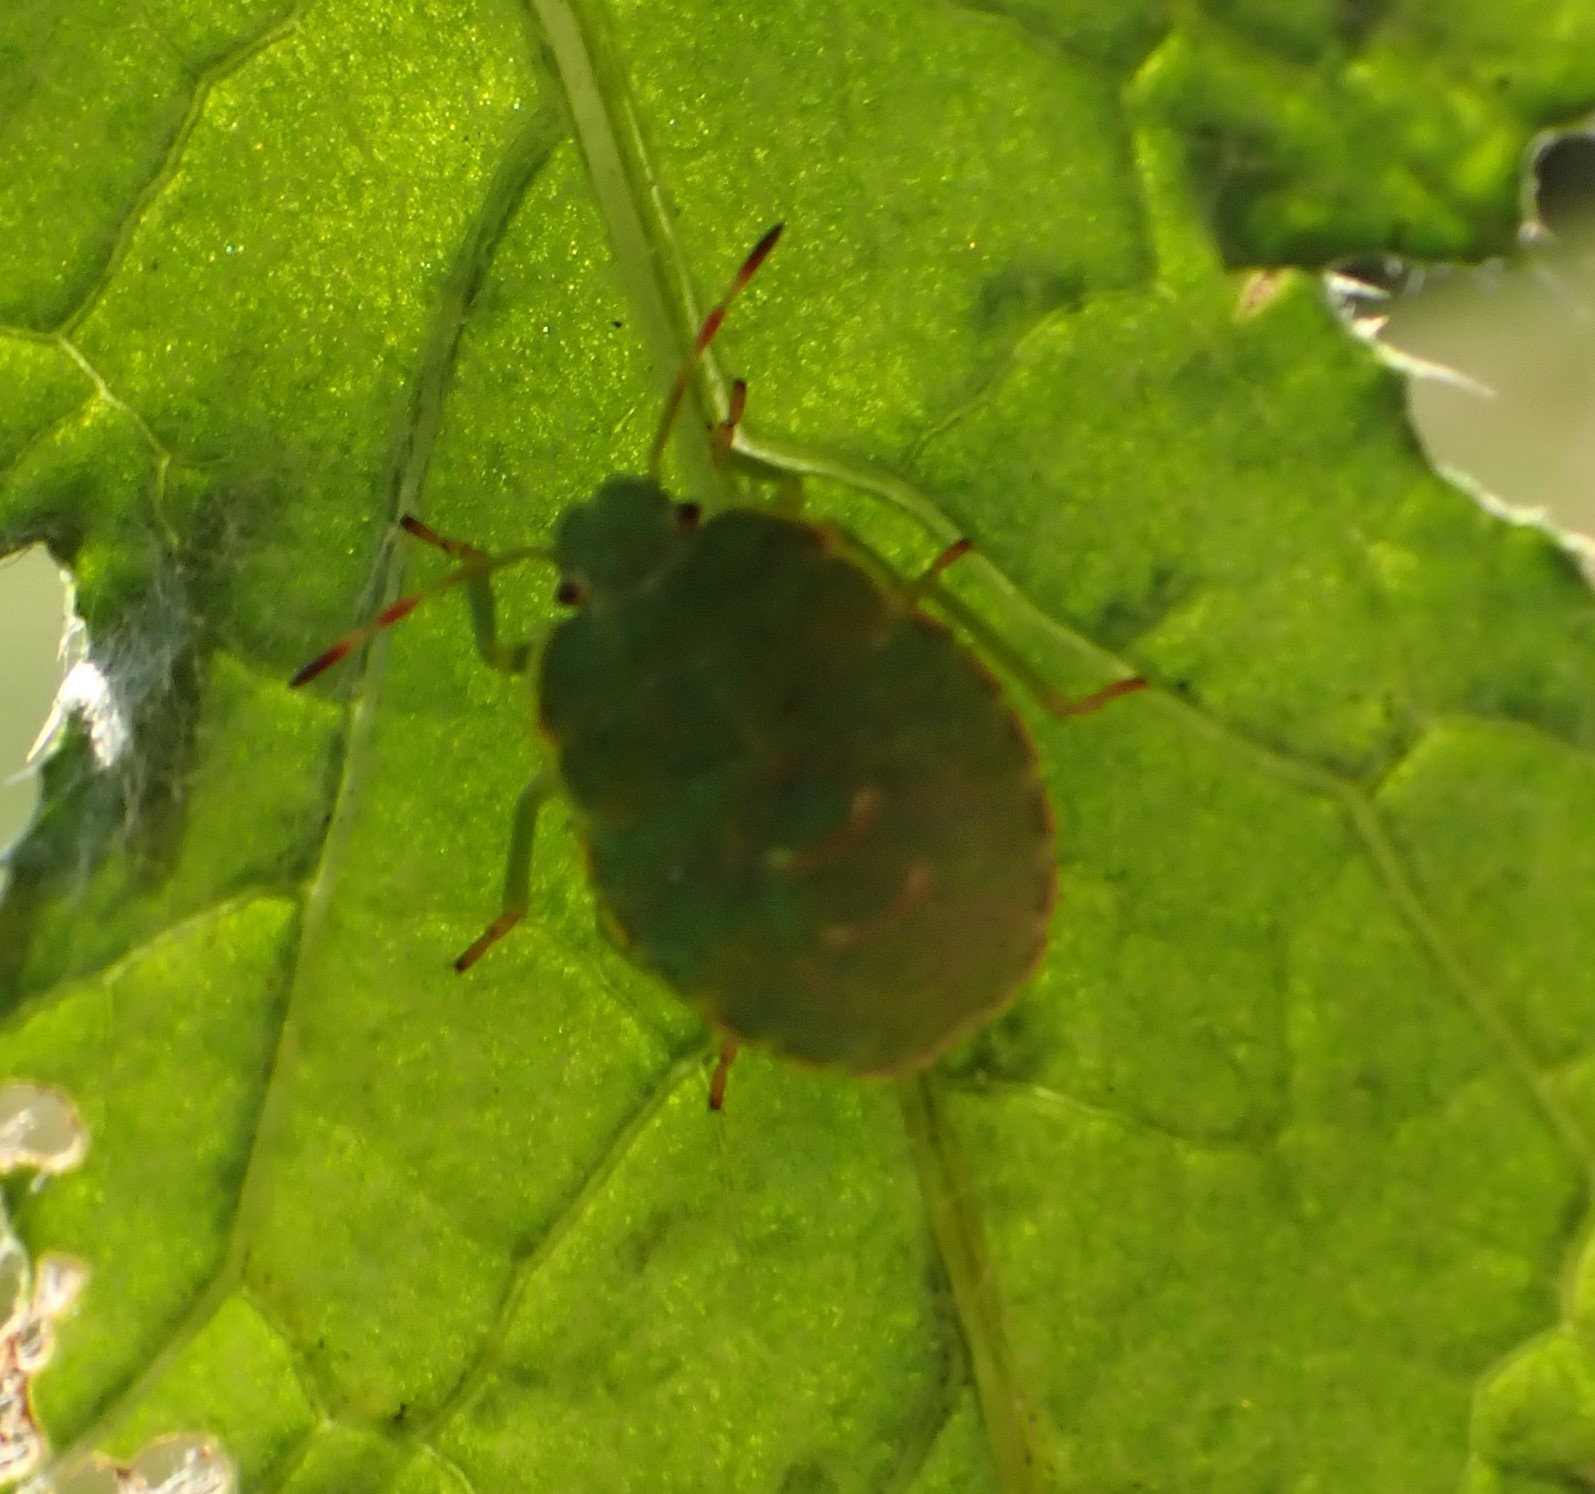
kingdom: Animalia
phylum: Arthropoda
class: Insecta
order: Hemiptera
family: Pentatomidae
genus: Palomena
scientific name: Palomena prasina
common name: Green shieldbug
